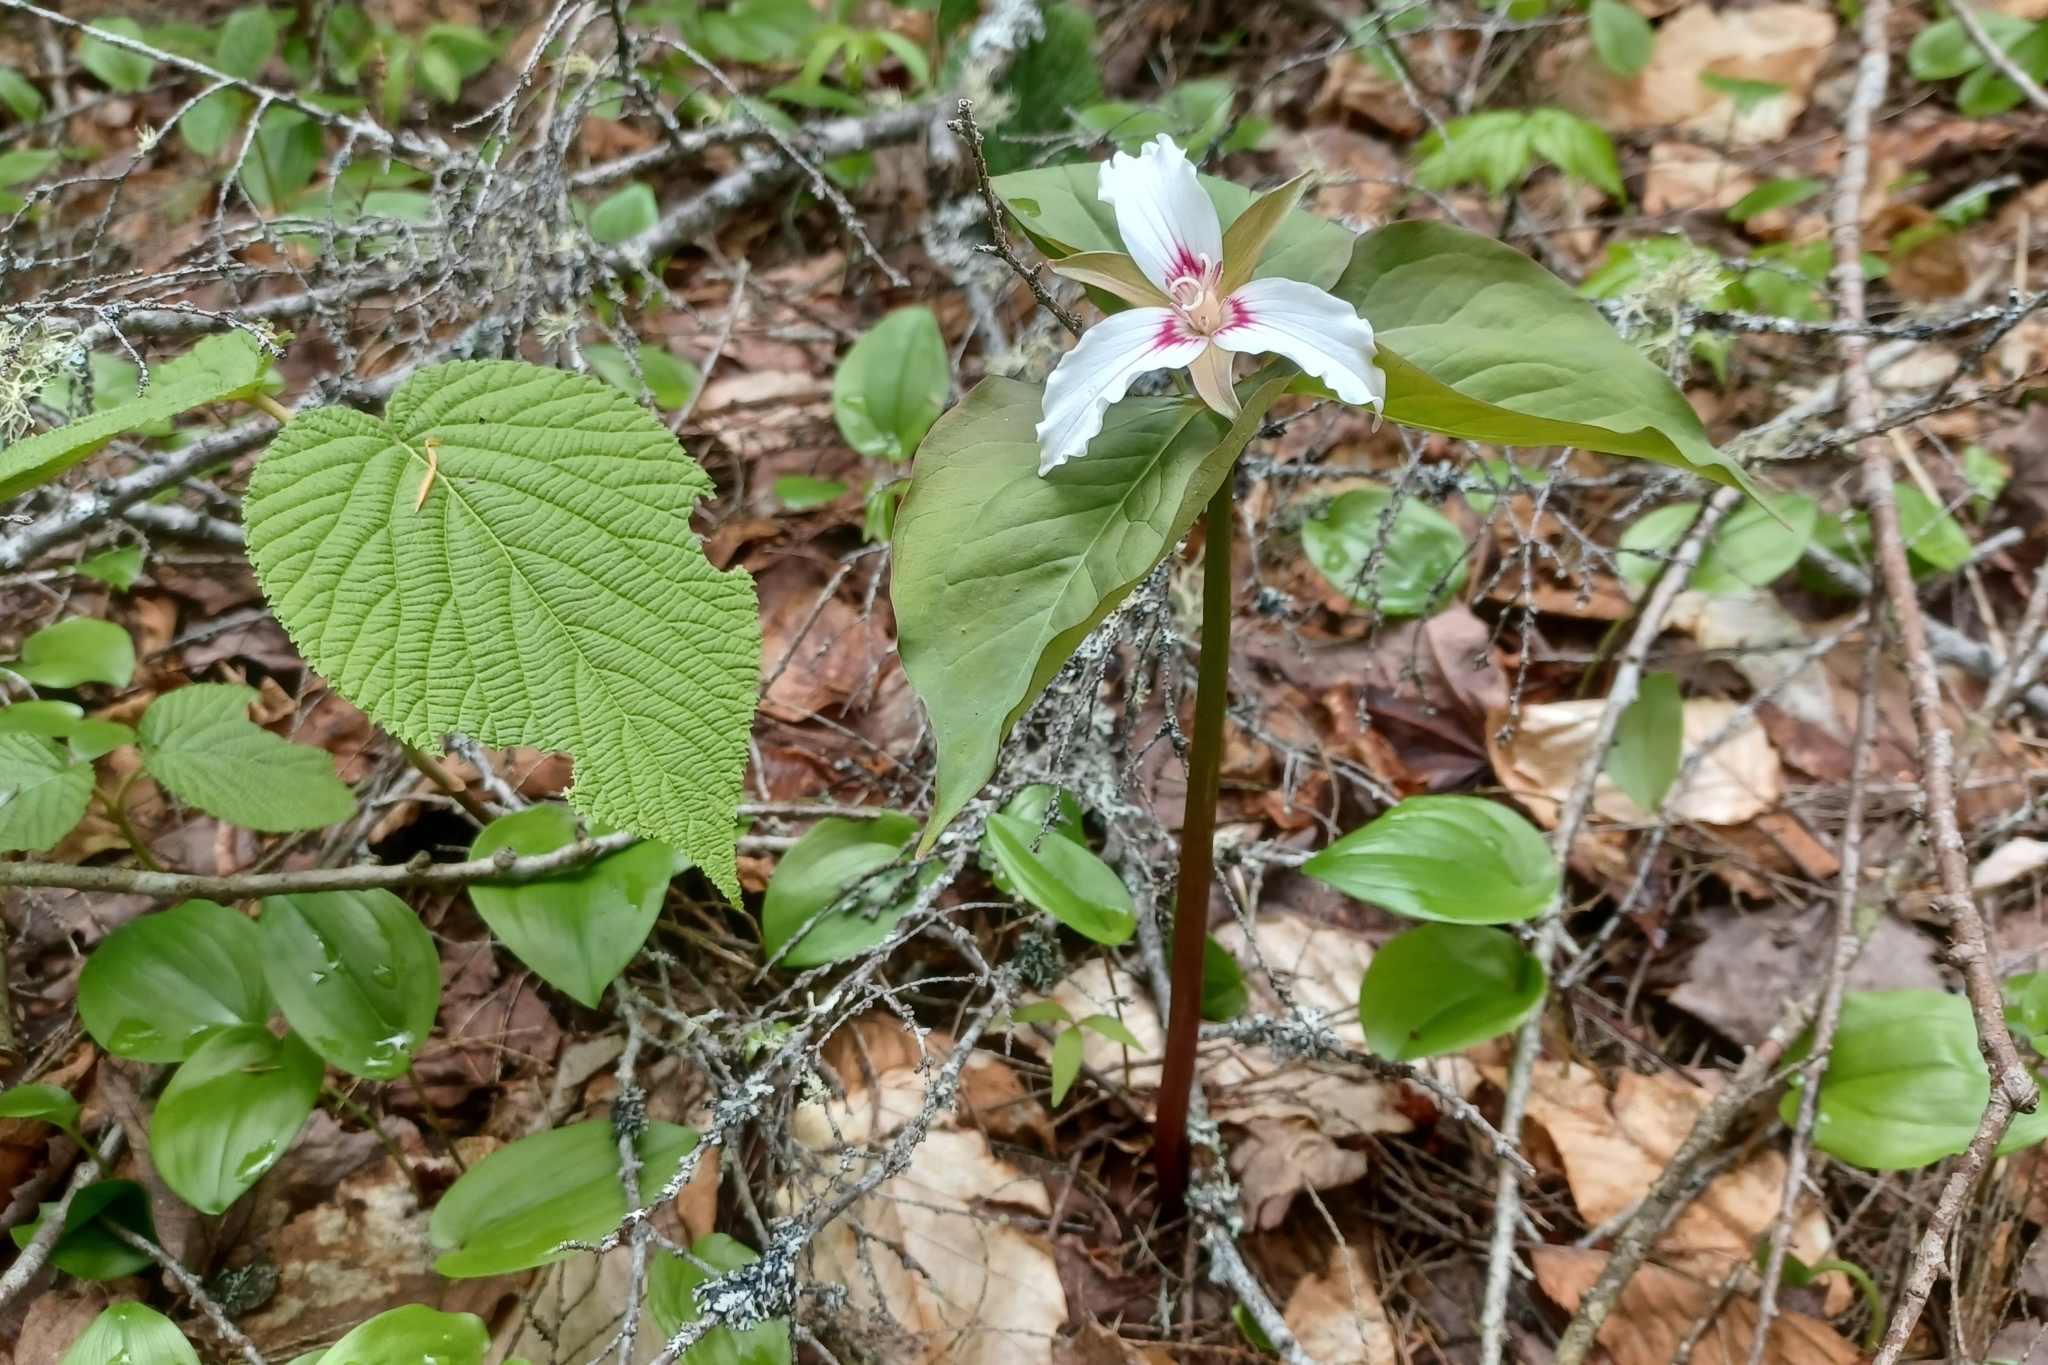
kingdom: Plantae
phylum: Tracheophyta
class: Liliopsida
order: Liliales
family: Melanthiaceae
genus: Trillium
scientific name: Trillium undulatum
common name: Paint trillium
